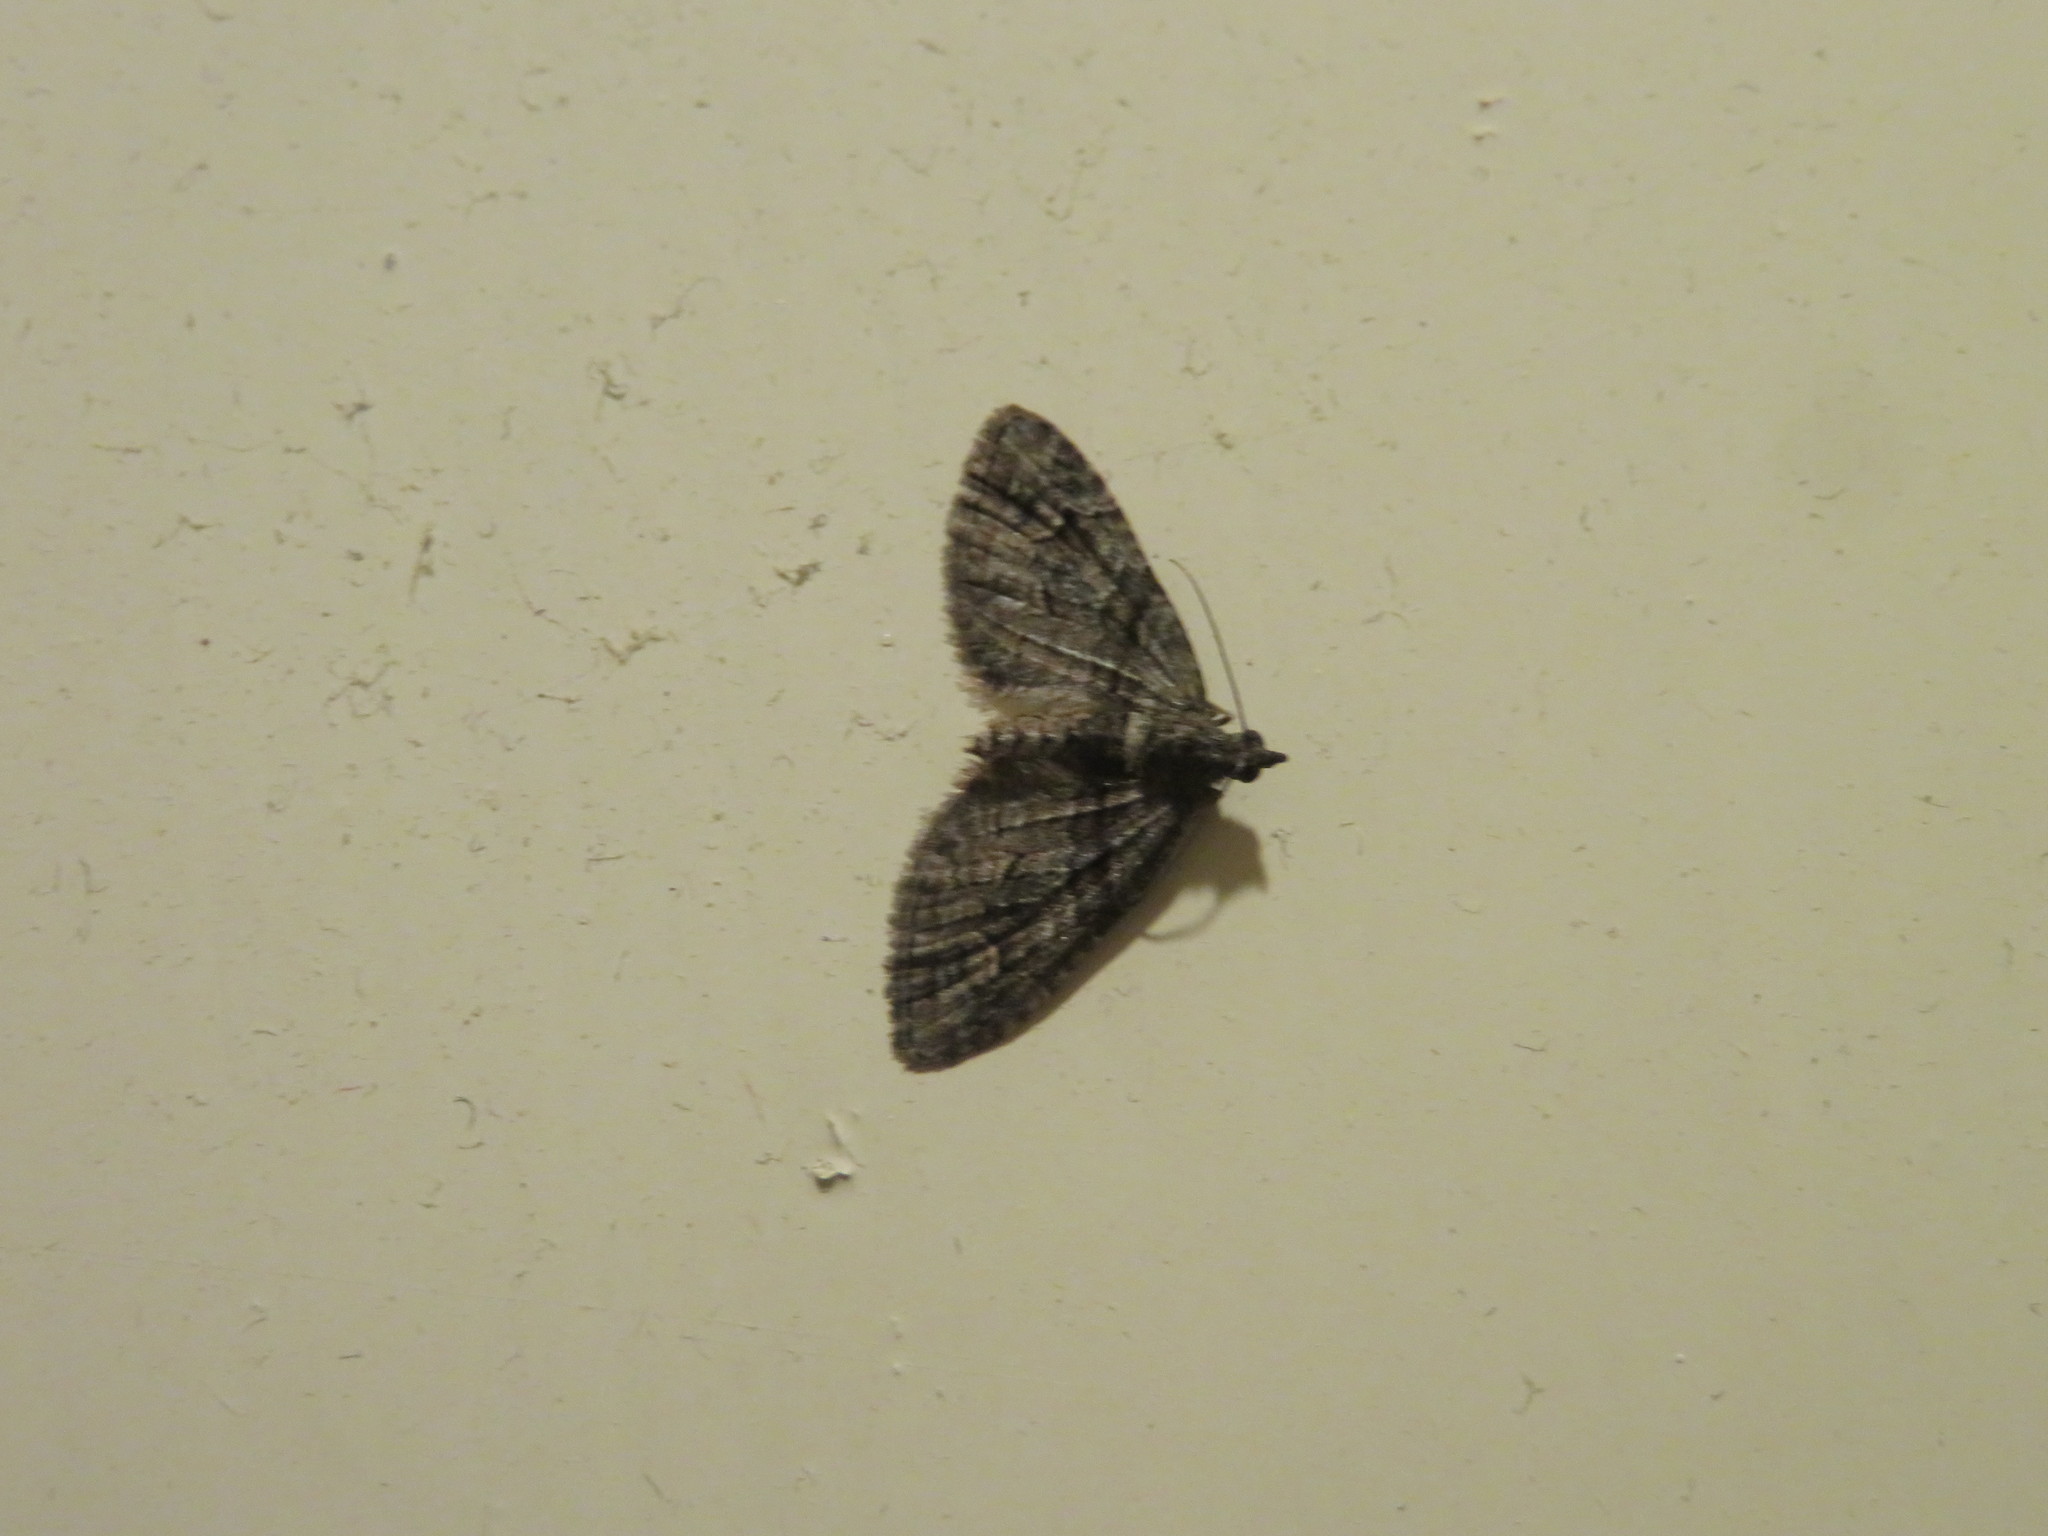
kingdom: Animalia
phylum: Arthropoda
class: Insecta
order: Lepidoptera
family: Geometridae
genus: Phrissogonus
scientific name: Phrissogonus laticostata
